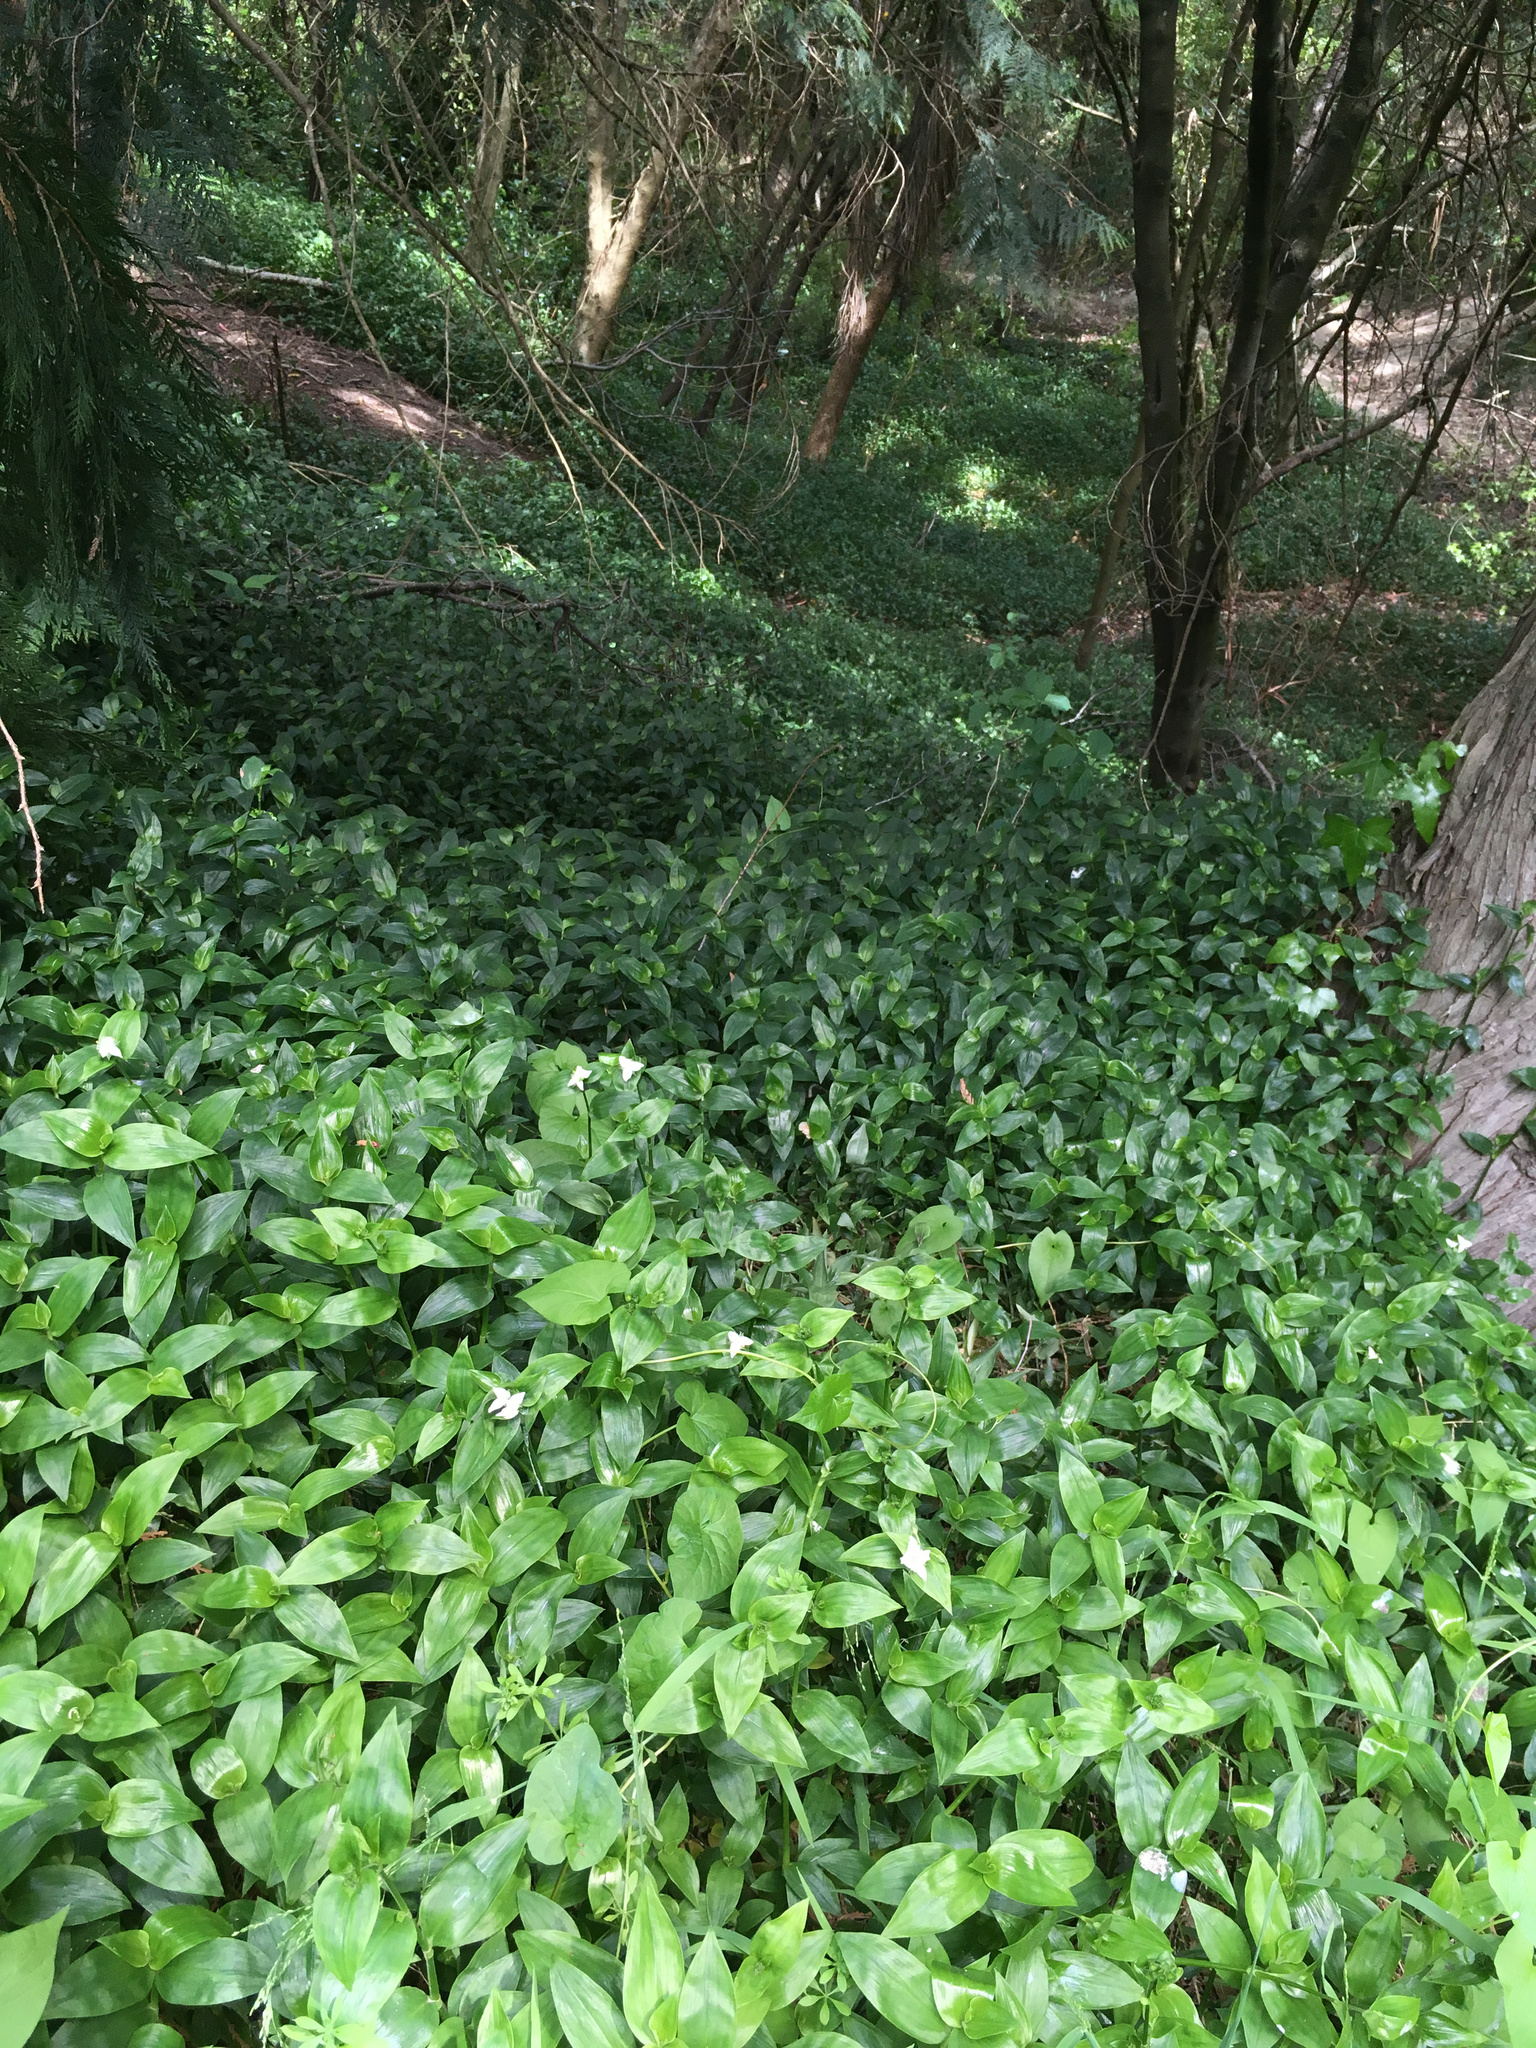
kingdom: Plantae
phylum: Tracheophyta
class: Liliopsida
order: Commelinales
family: Commelinaceae
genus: Tradescantia
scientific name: Tradescantia fluminensis
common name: Wandering-jew
